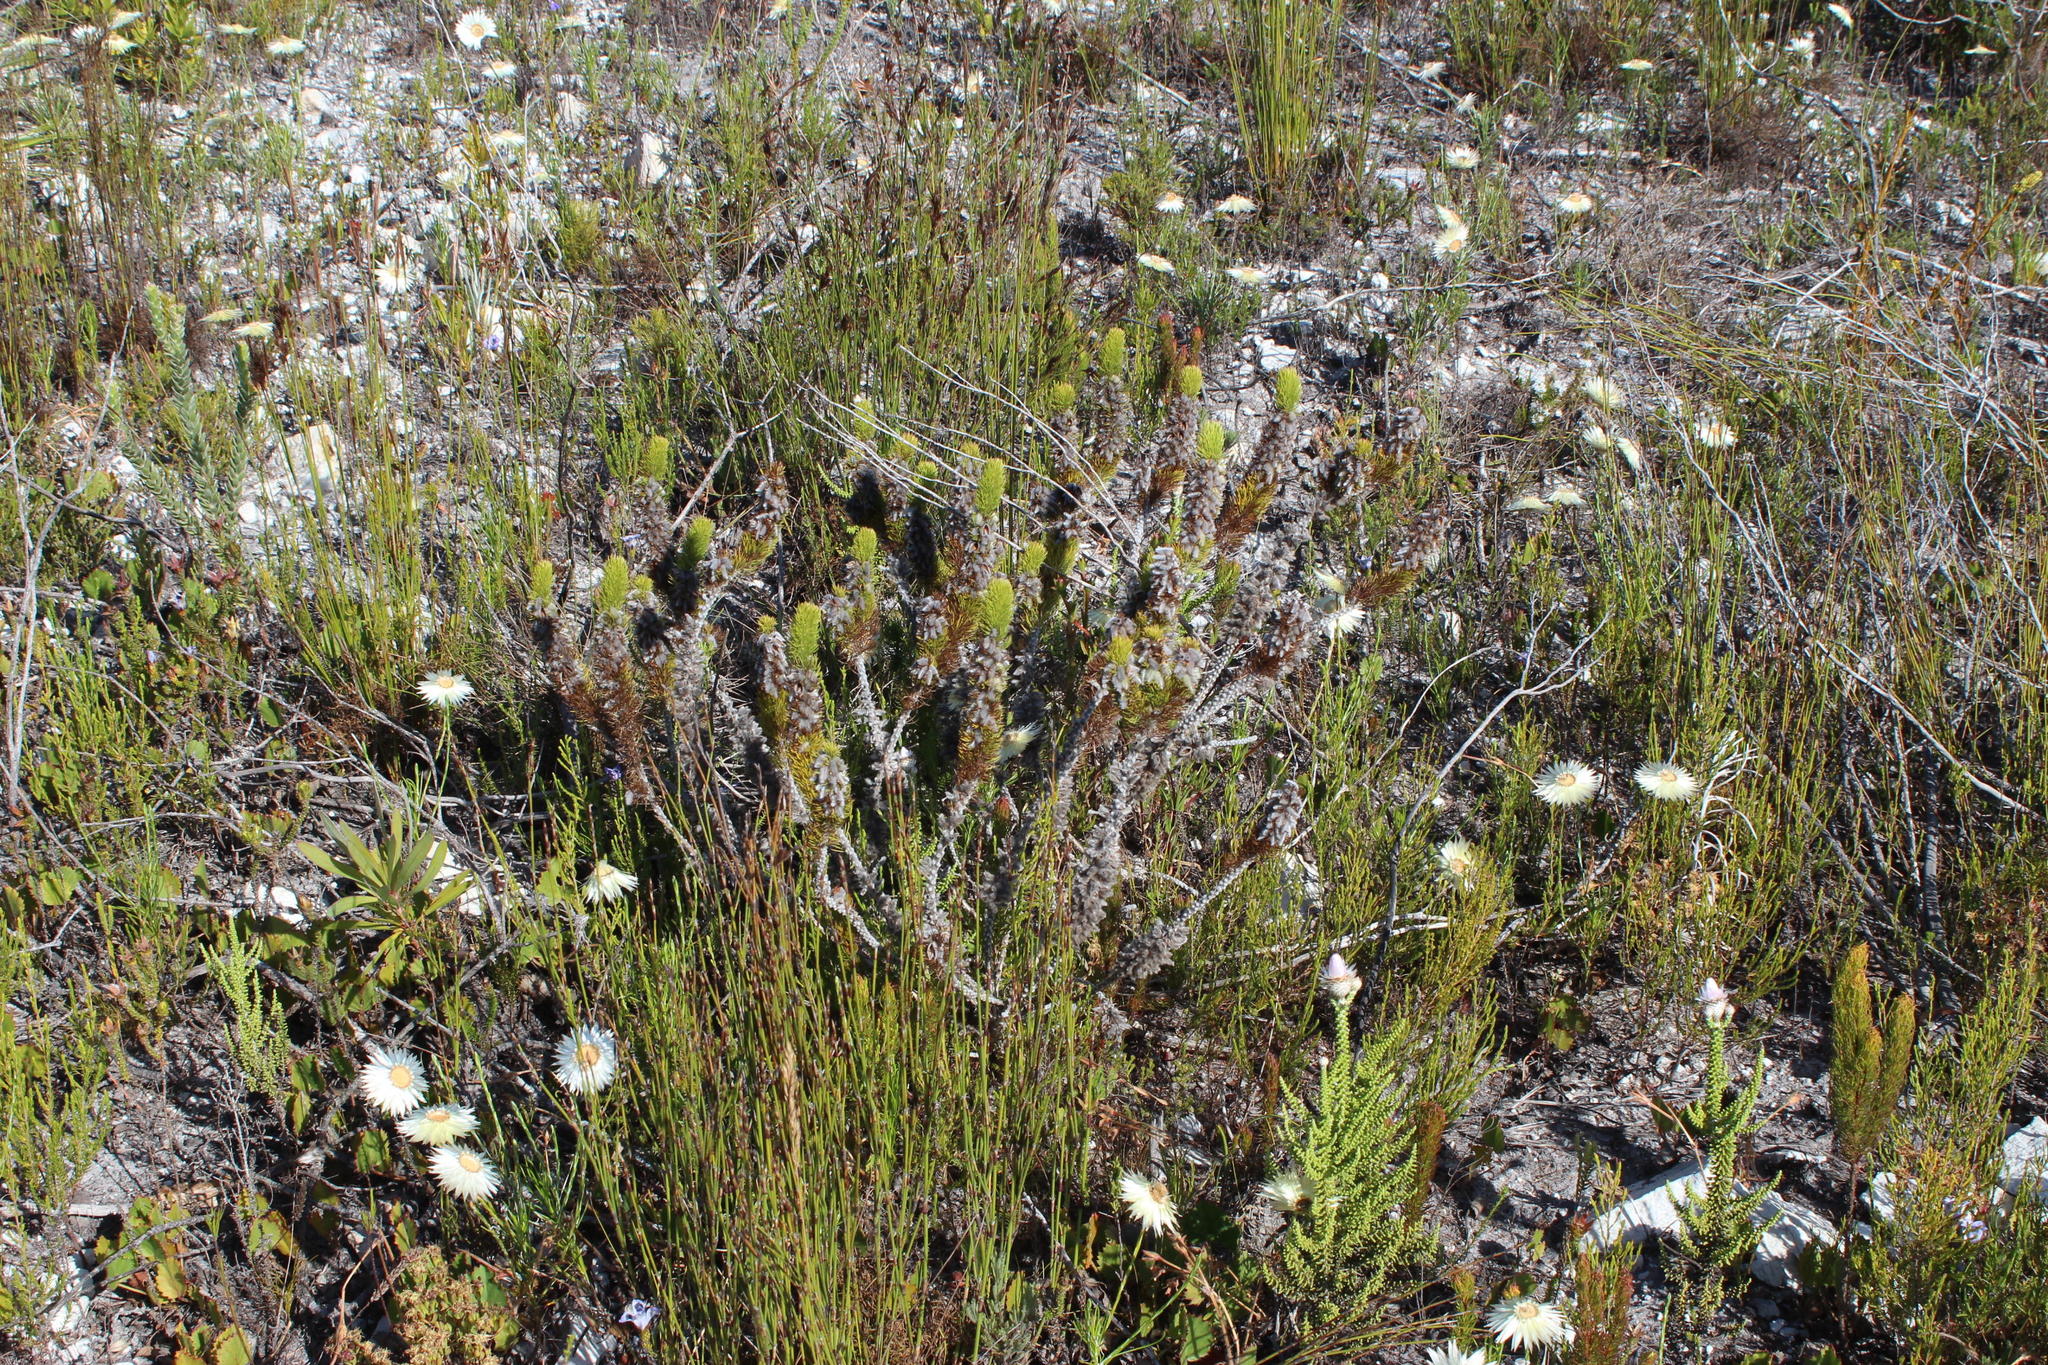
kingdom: Plantae
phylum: Tracheophyta
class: Magnoliopsida
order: Fabales
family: Fabaceae
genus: Aspalathus
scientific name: Aspalathus incurvifolia
